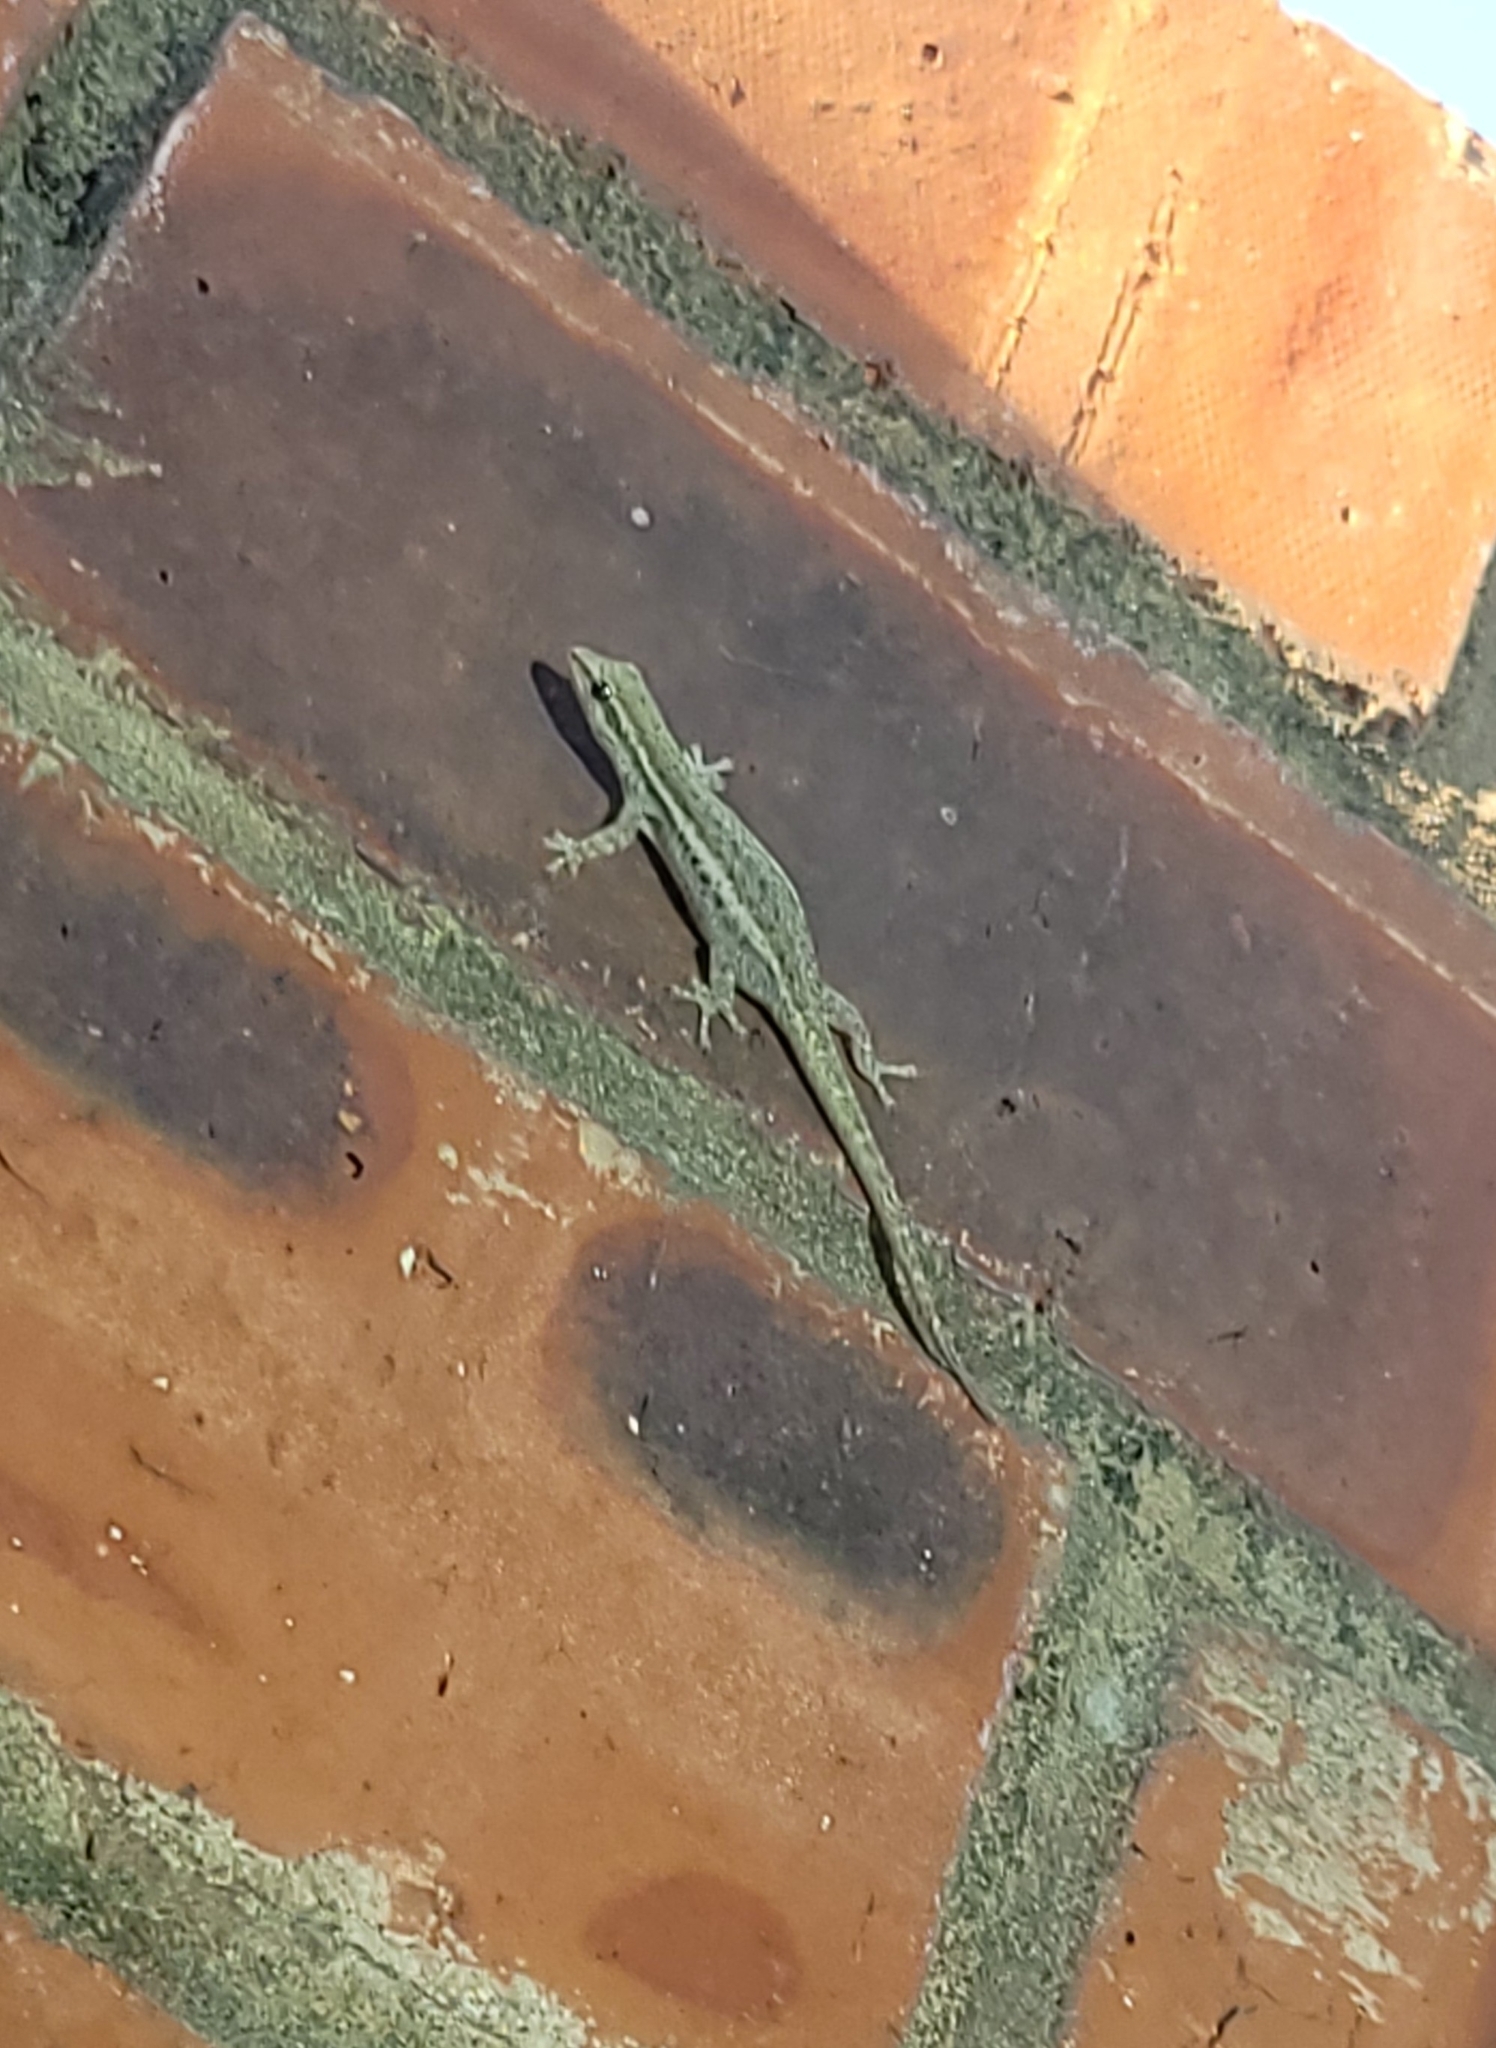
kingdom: Animalia
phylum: Chordata
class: Squamata
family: Gekkonidae
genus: Lygodactylus
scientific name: Lygodactylus capensis
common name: Cape dwarf gecko
